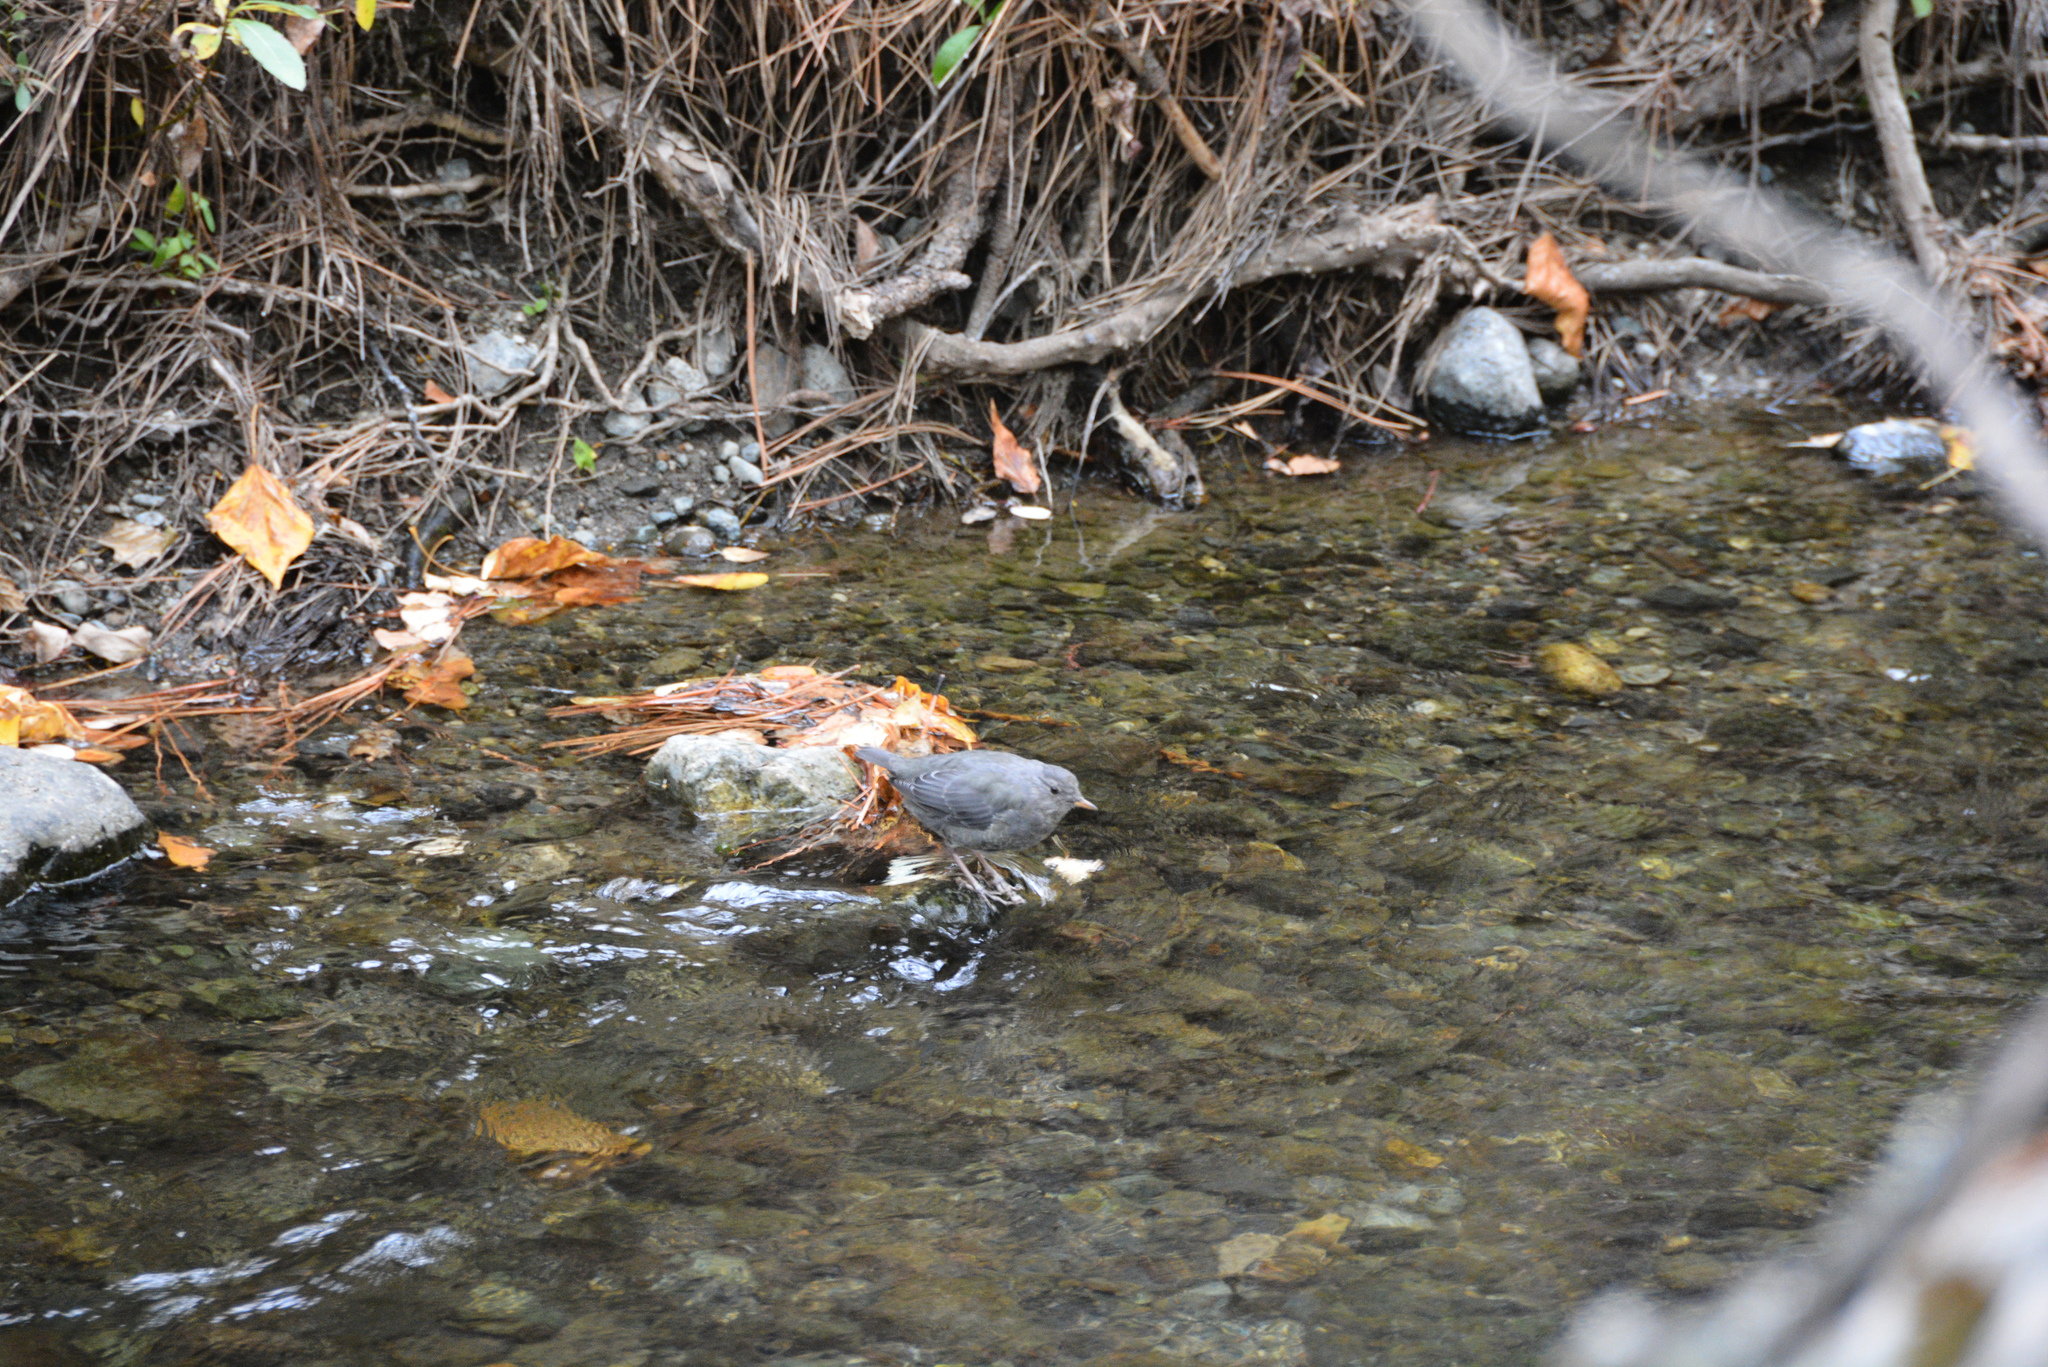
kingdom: Animalia
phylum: Chordata
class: Aves
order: Passeriformes
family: Cinclidae
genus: Cinclus
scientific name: Cinclus mexicanus
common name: American dipper
